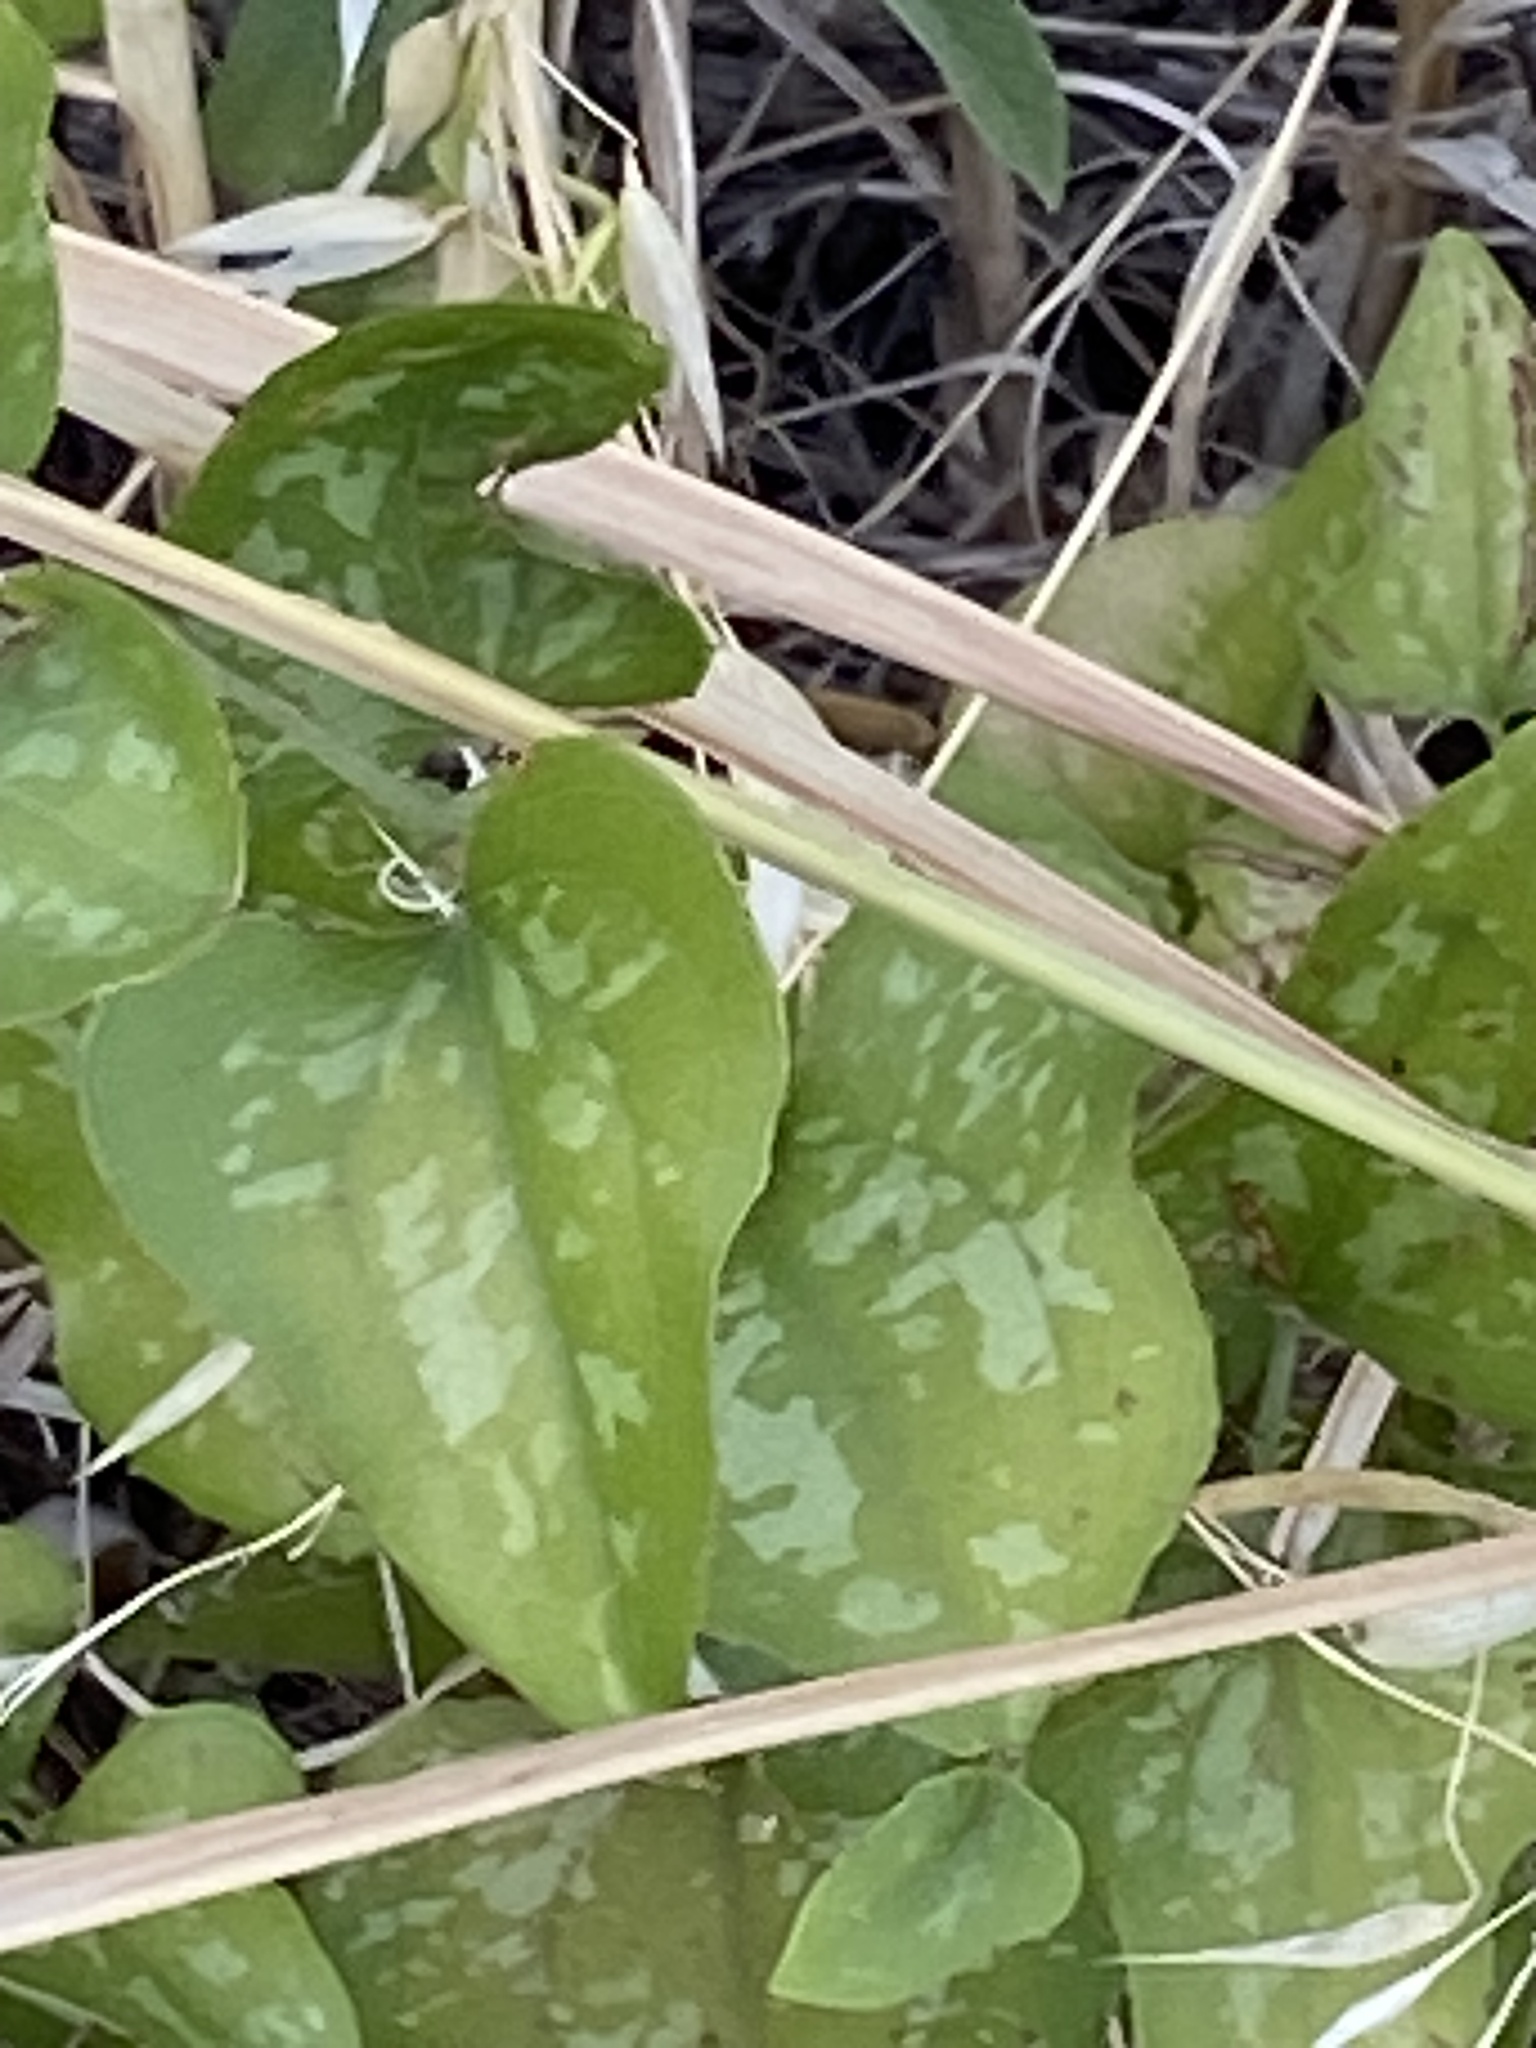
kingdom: Plantae
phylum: Tracheophyta
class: Liliopsida
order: Liliales
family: Smilacaceae
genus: Smilax
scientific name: Smilax bona-nox
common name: Catbrier
